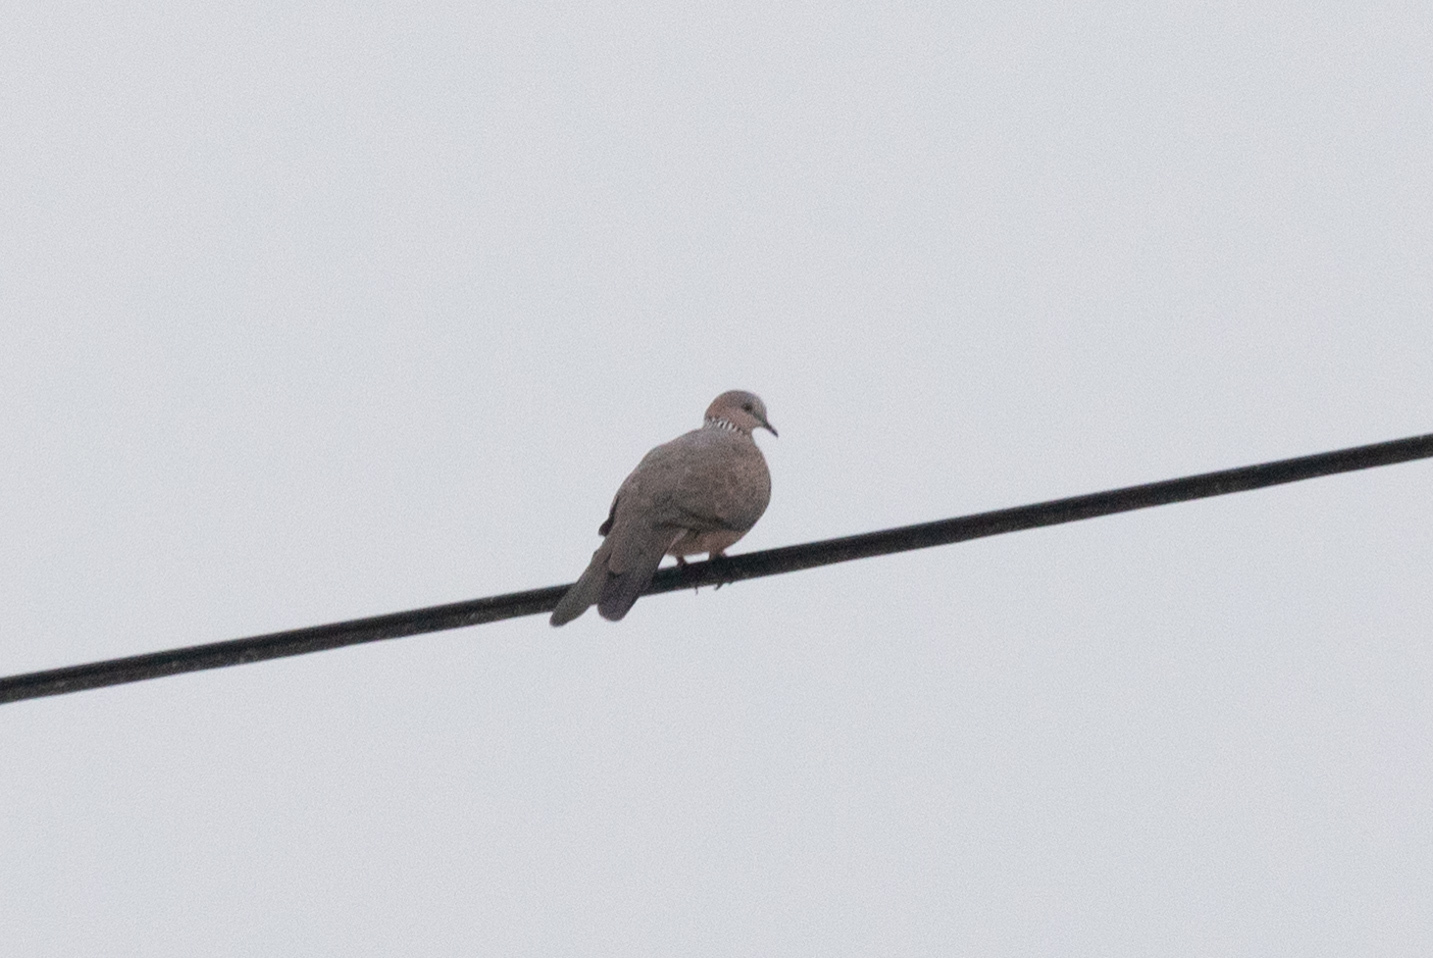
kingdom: Animalia
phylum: Chordata
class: Aves
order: Columbiformes
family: Columbidae
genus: Spilopelia
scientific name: Spilopelia chinensis
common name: Spotted dove
